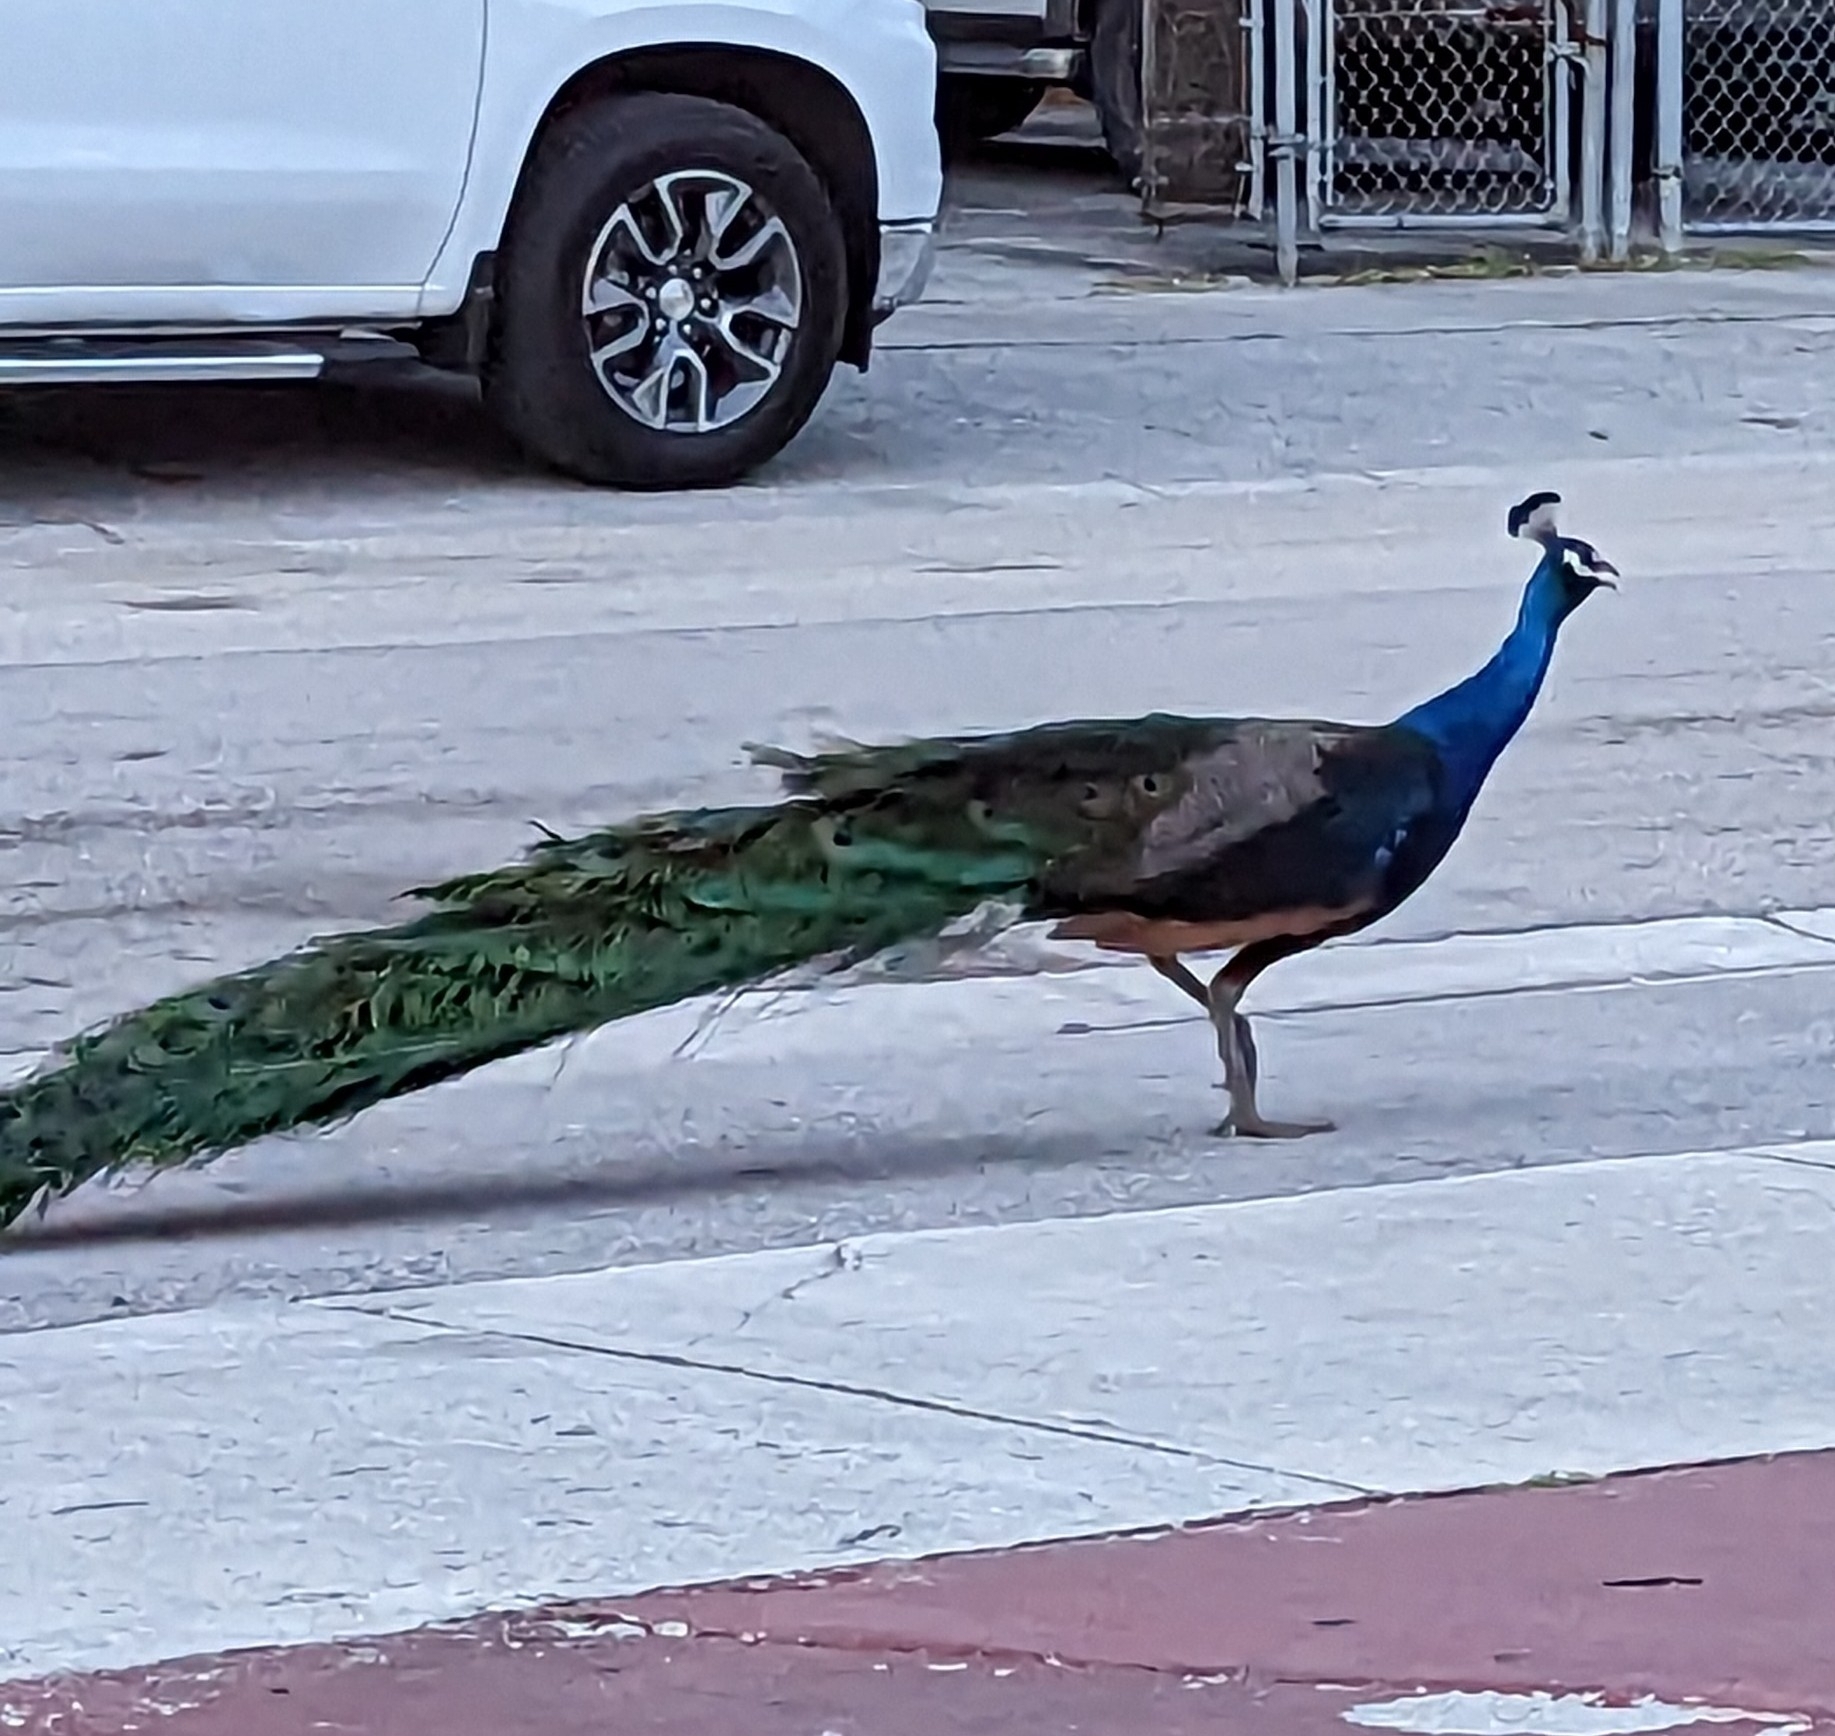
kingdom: Animalia
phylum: Chordata
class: Aves
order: Galliformes
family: Phasianidae
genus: Pavo
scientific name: Pavo cristatus
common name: Indian peafowl
